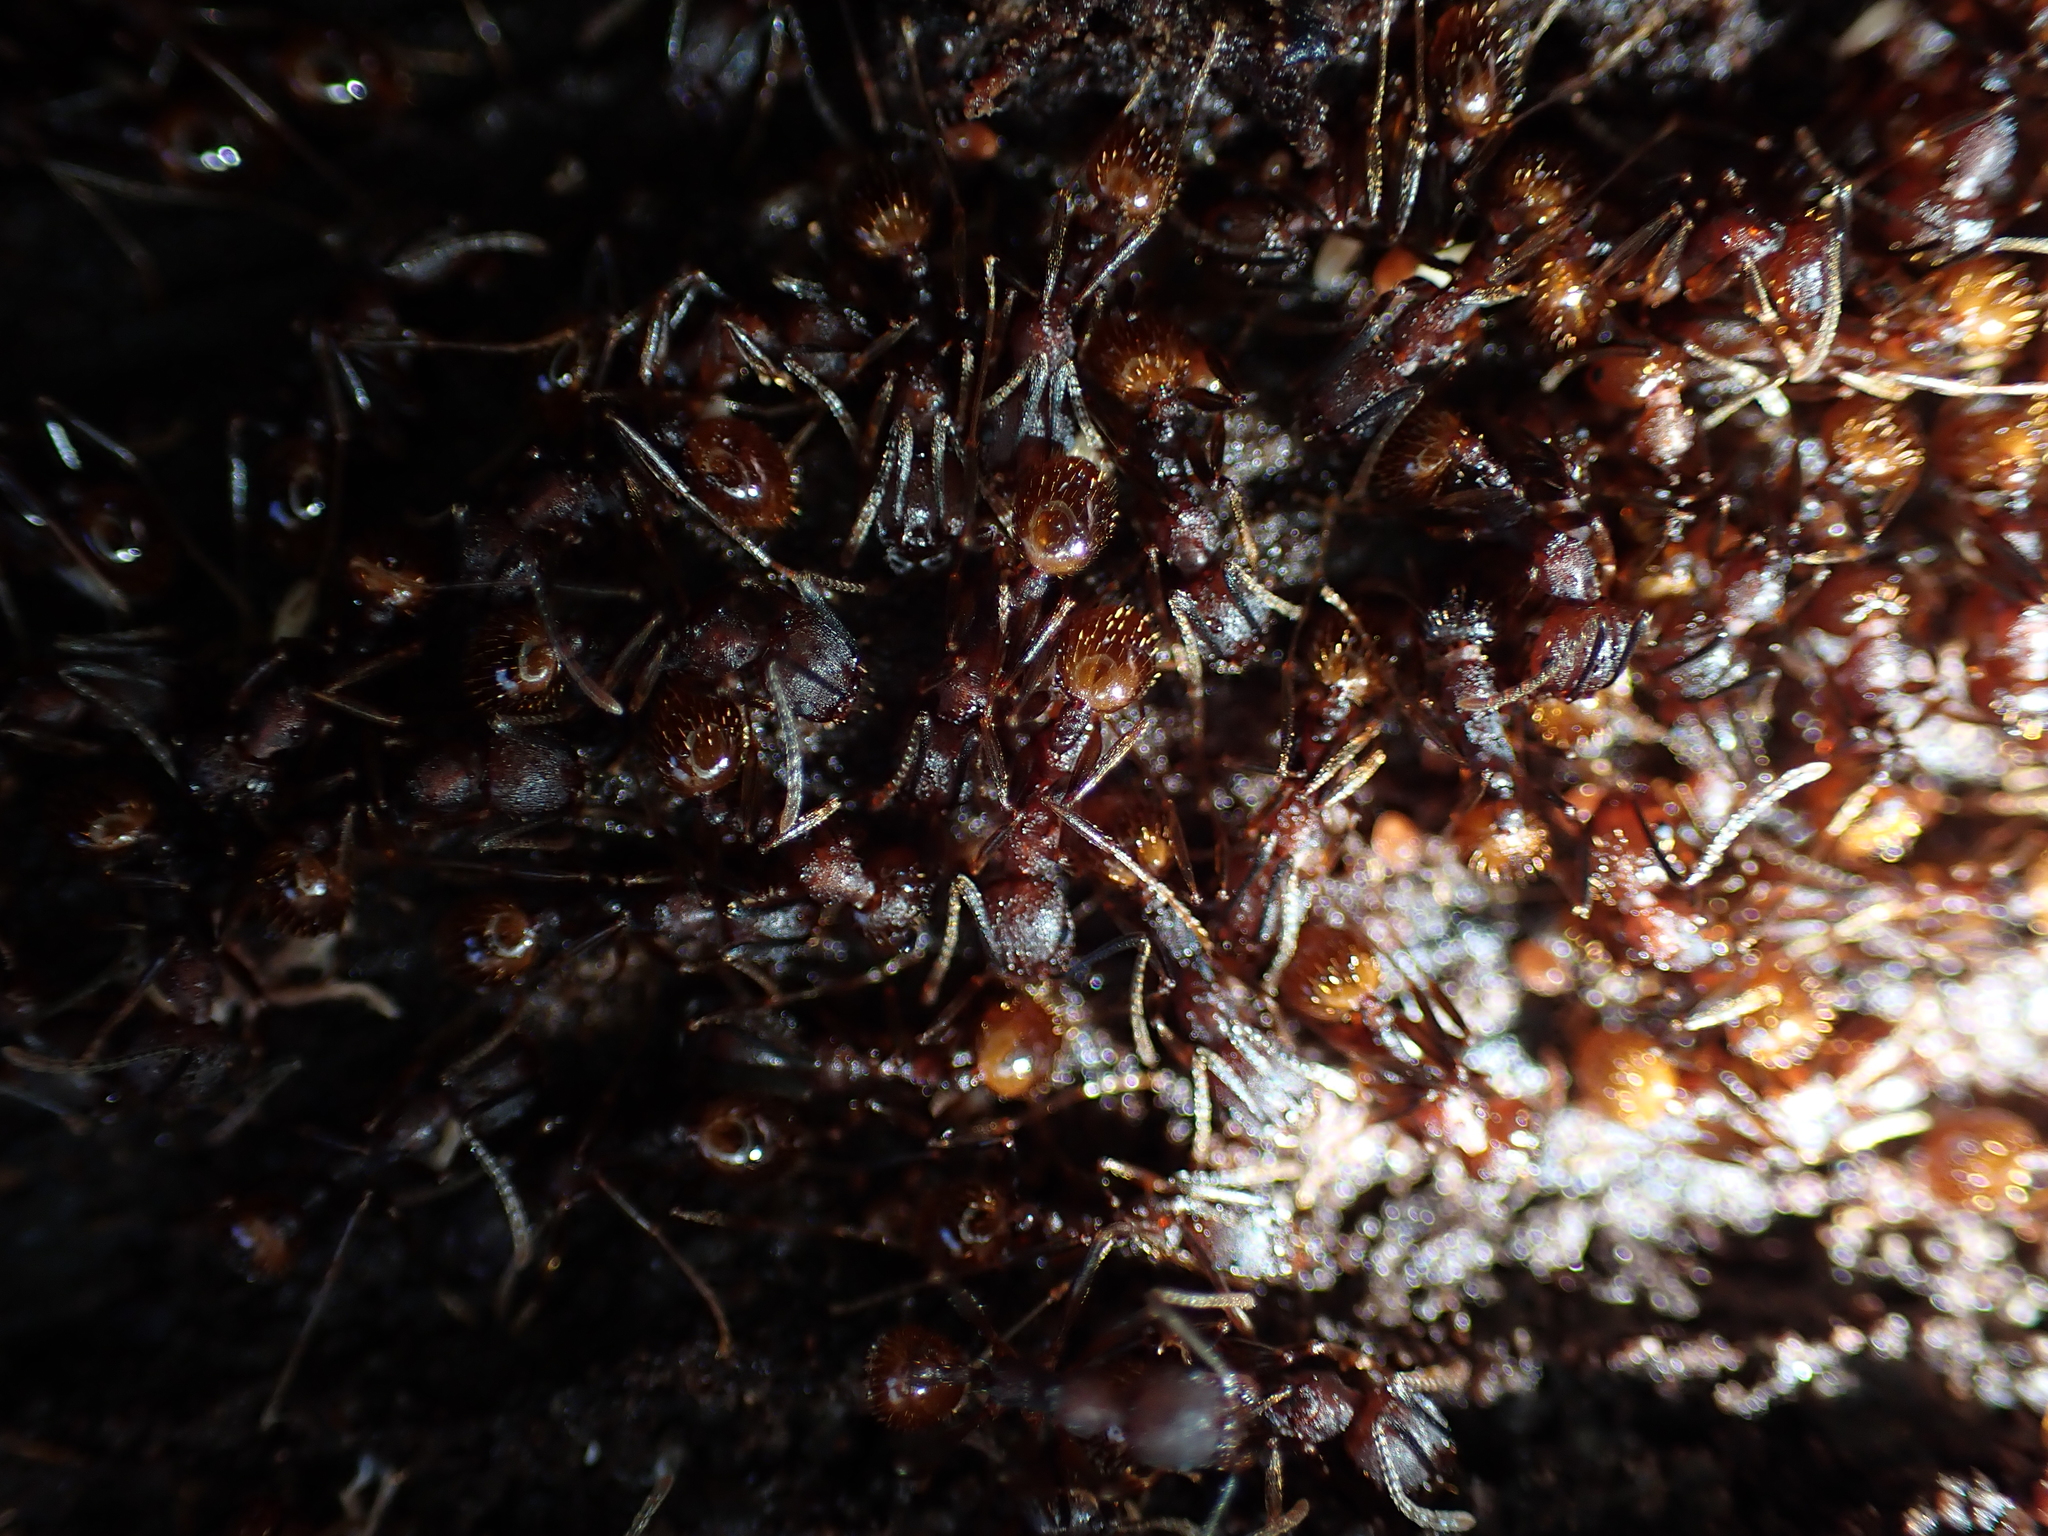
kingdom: Animalia
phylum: Arthropoda
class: Insecta
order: Hymenoptera
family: Formicidae
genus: Aphaenogaster
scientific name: Aphaenogaster fulva
